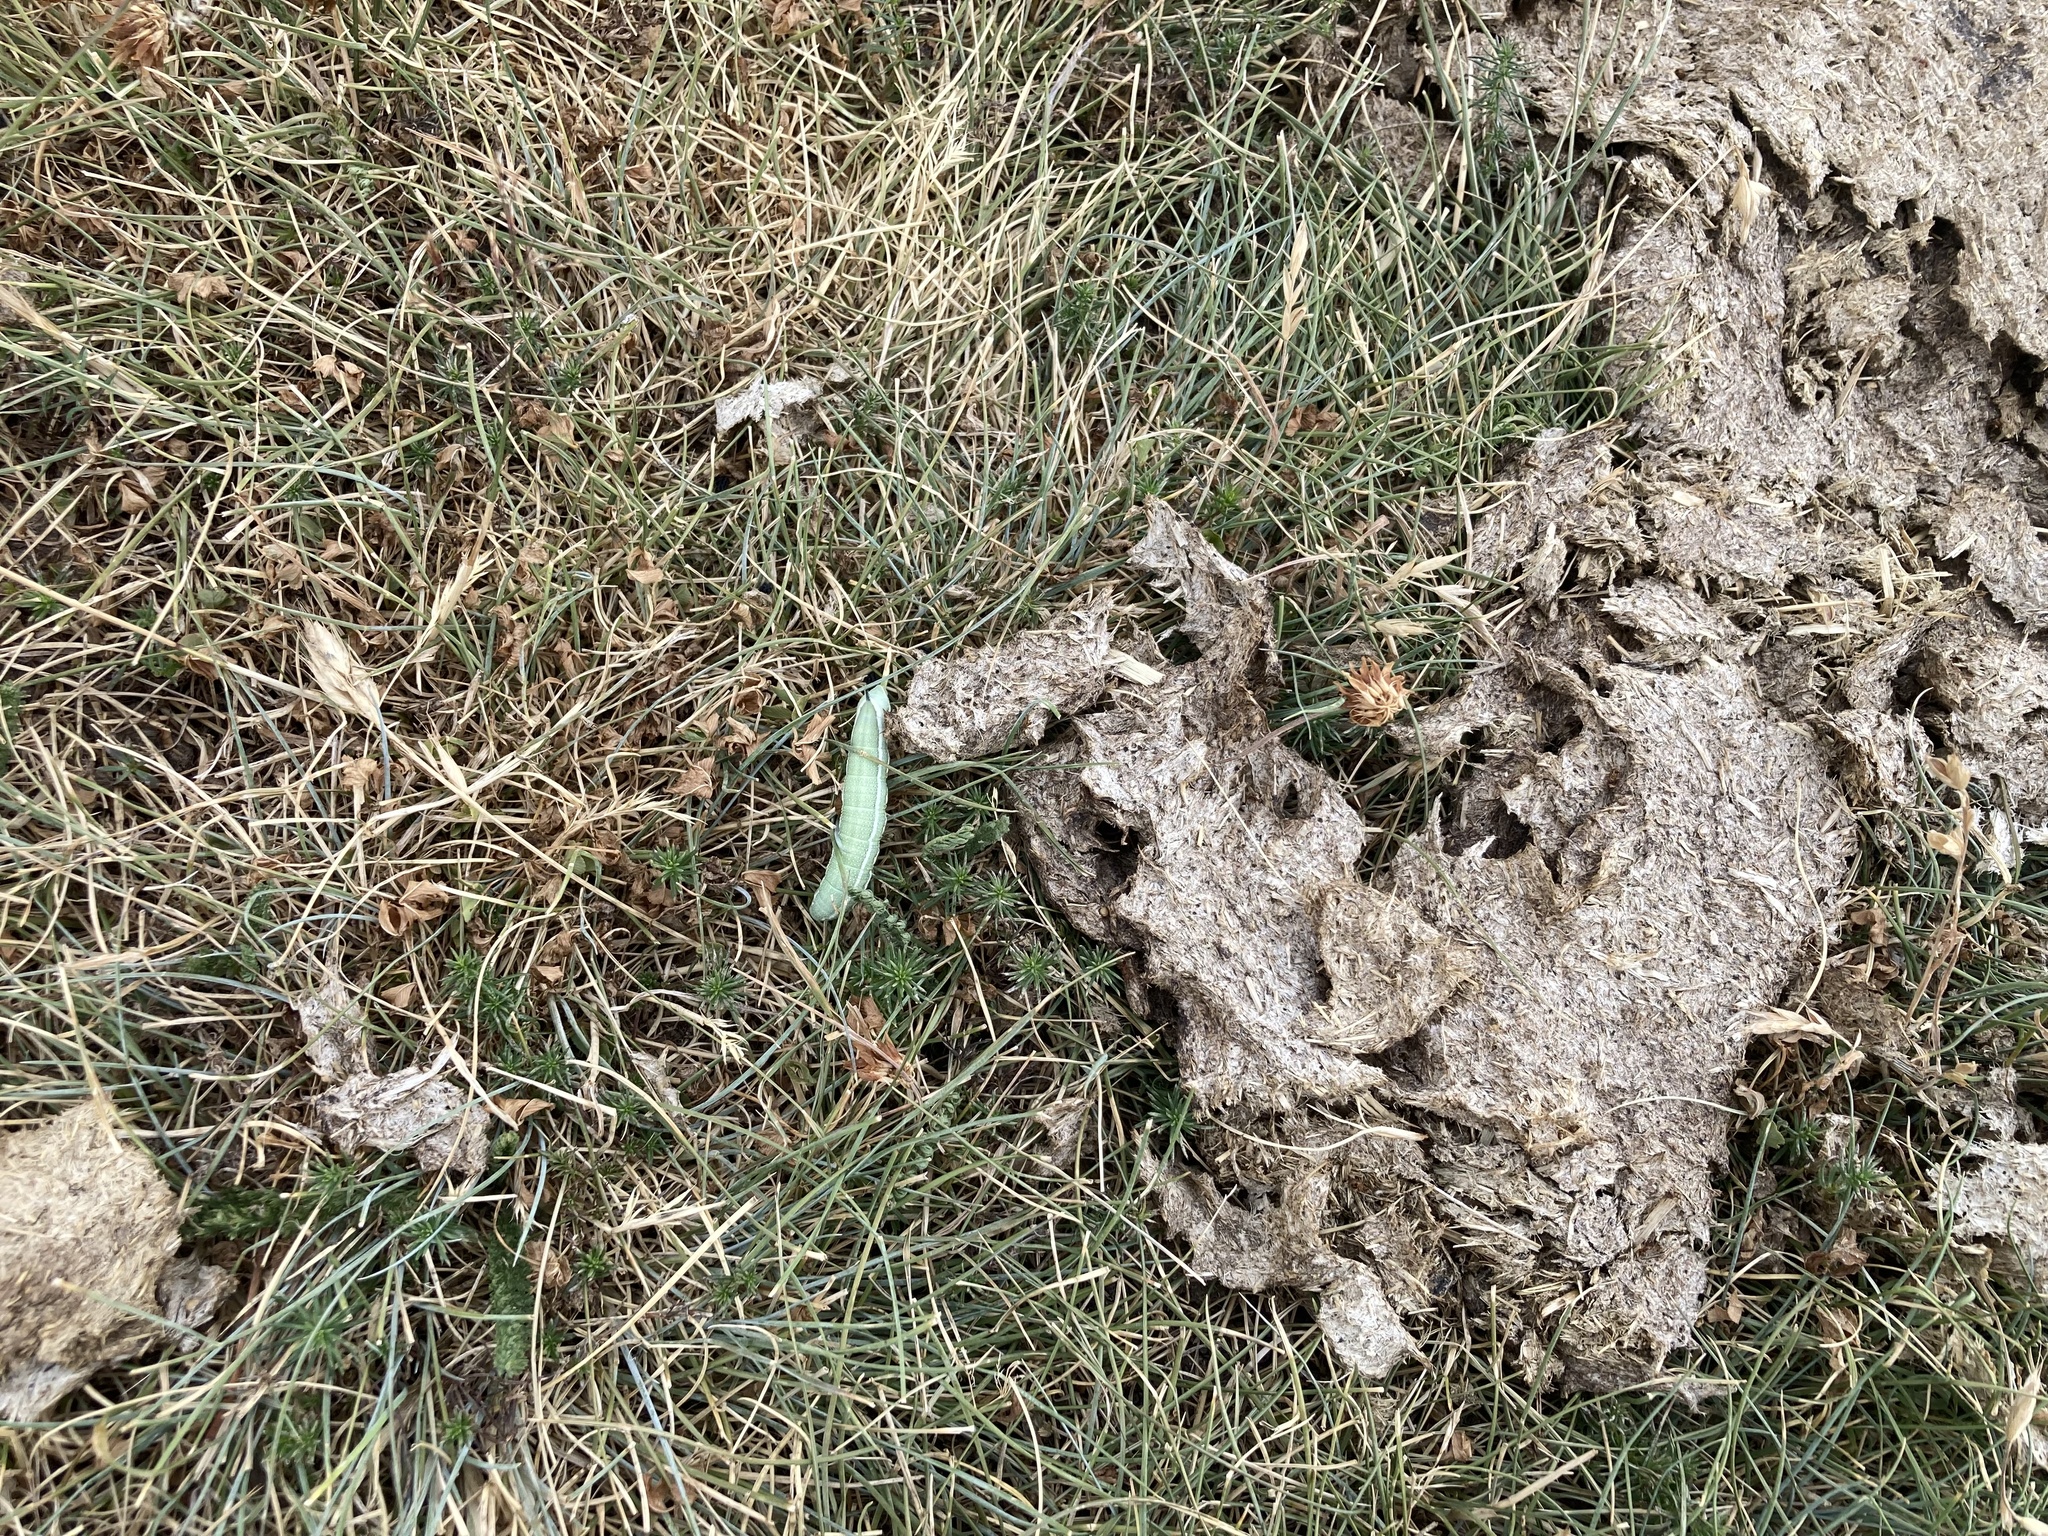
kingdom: Animalia
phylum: Arthropoda
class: Insecta
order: Lepidoptera
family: Sphingidae
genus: Macroglossum
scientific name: Macroglossum stellatarum
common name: Humming-bird hawk-moth
